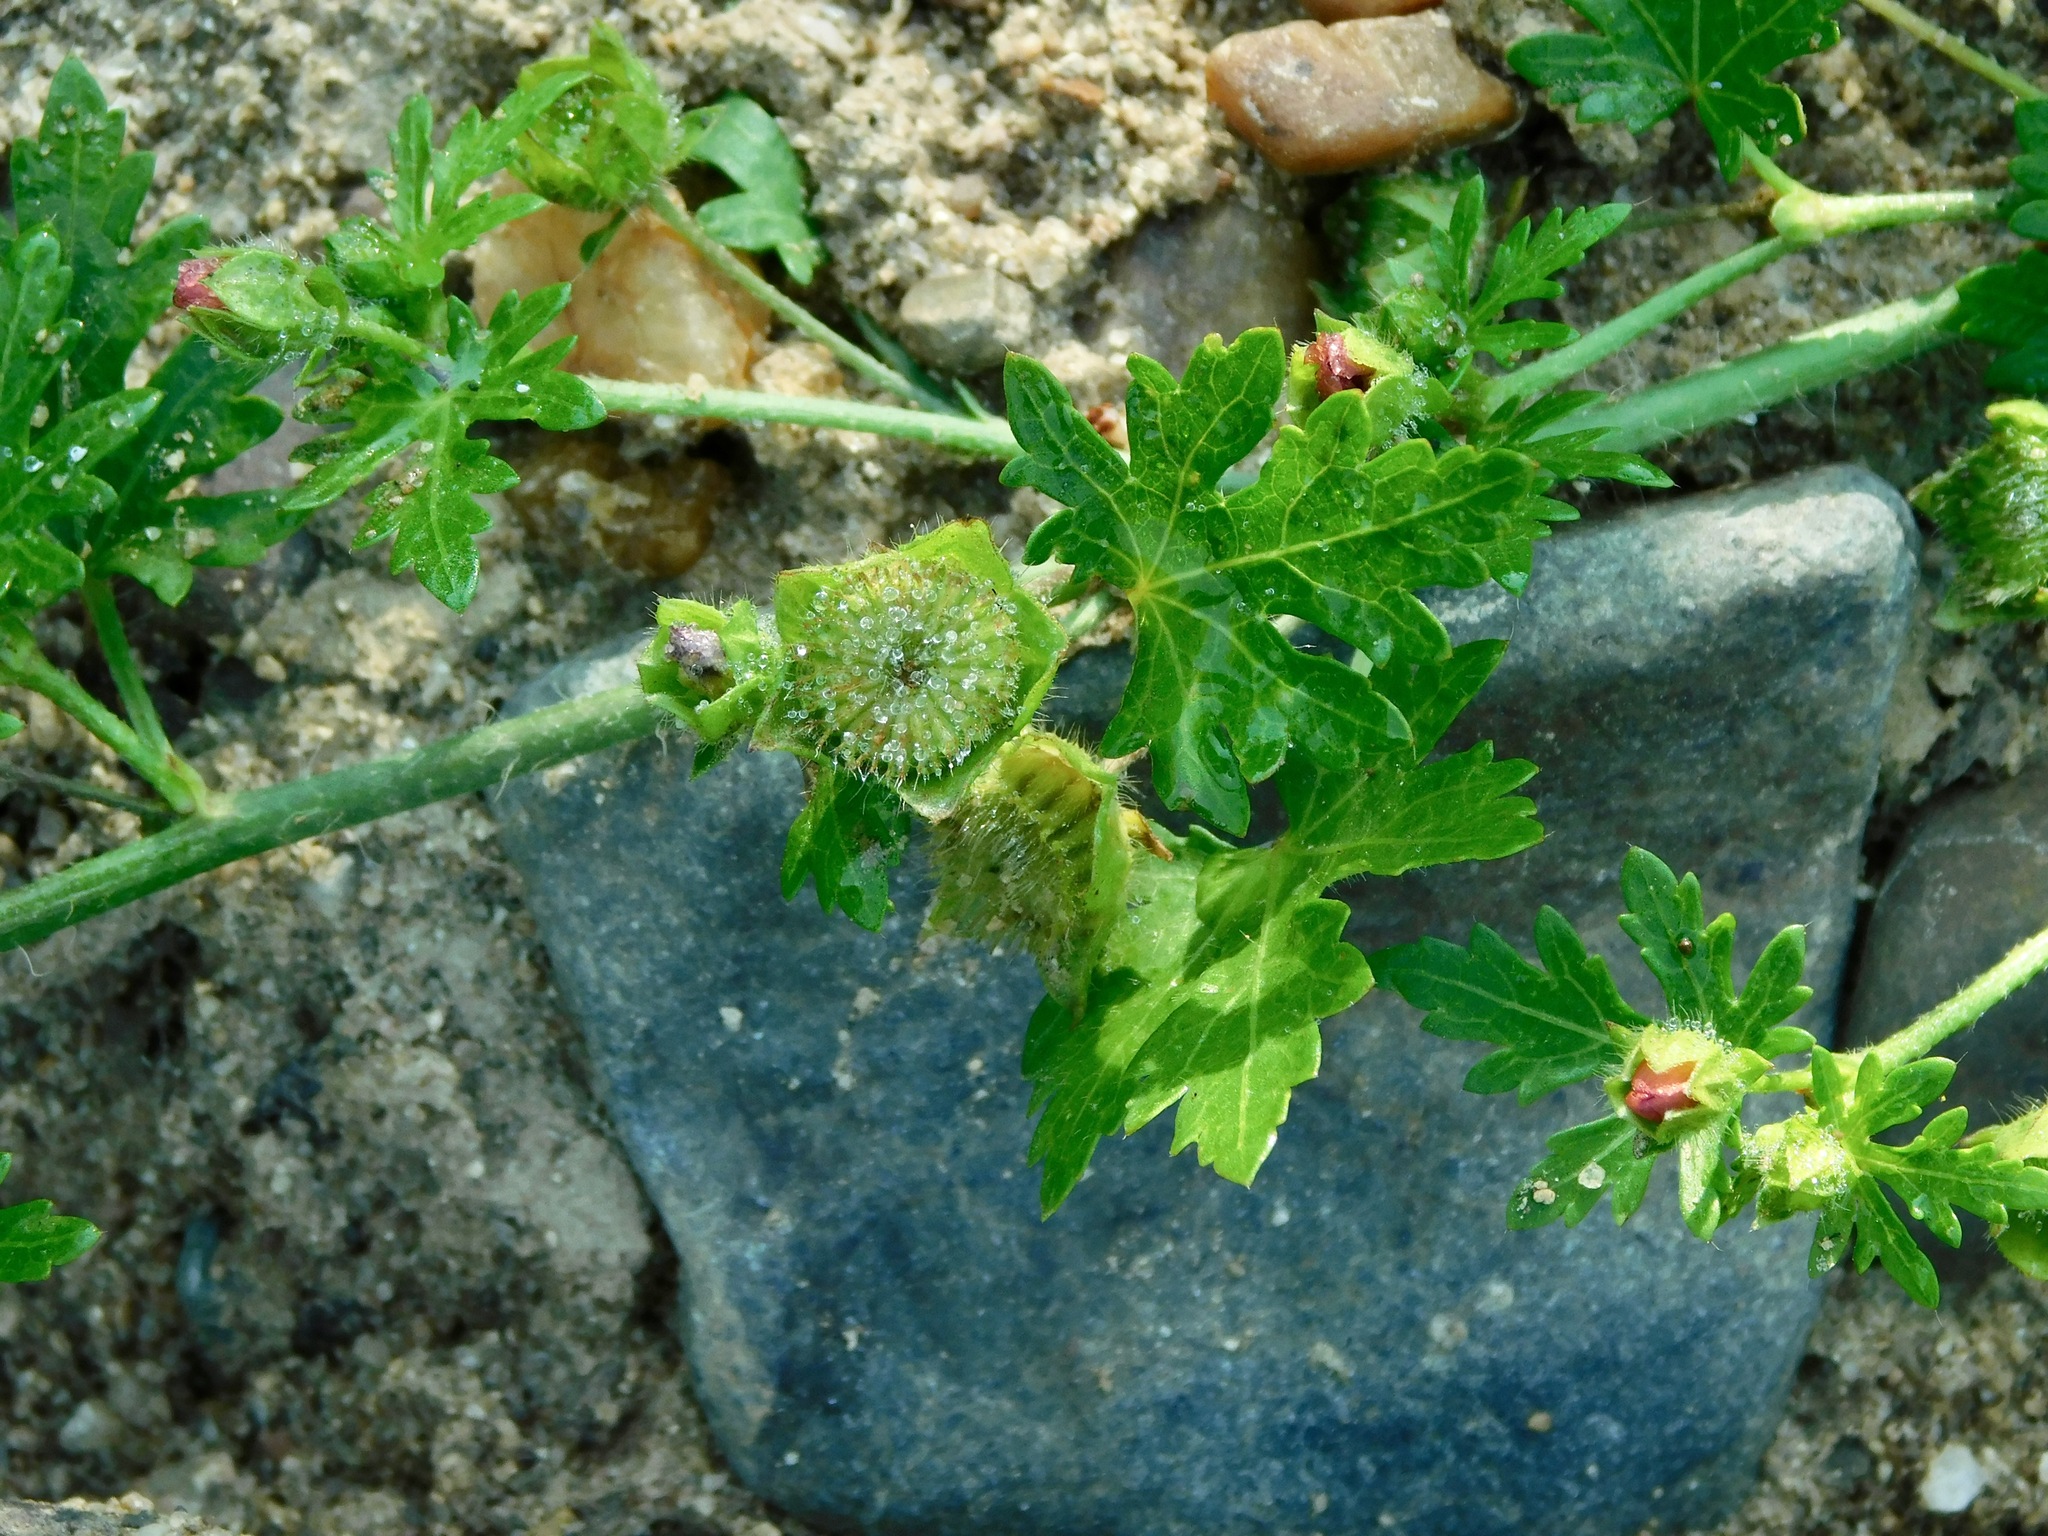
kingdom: Plantae
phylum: Tracheophyta
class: Magnoliopsida
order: Malvales
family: Malvaceae
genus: Modiola
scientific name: Modiola caroliniana
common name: Carolina bristlemallow
